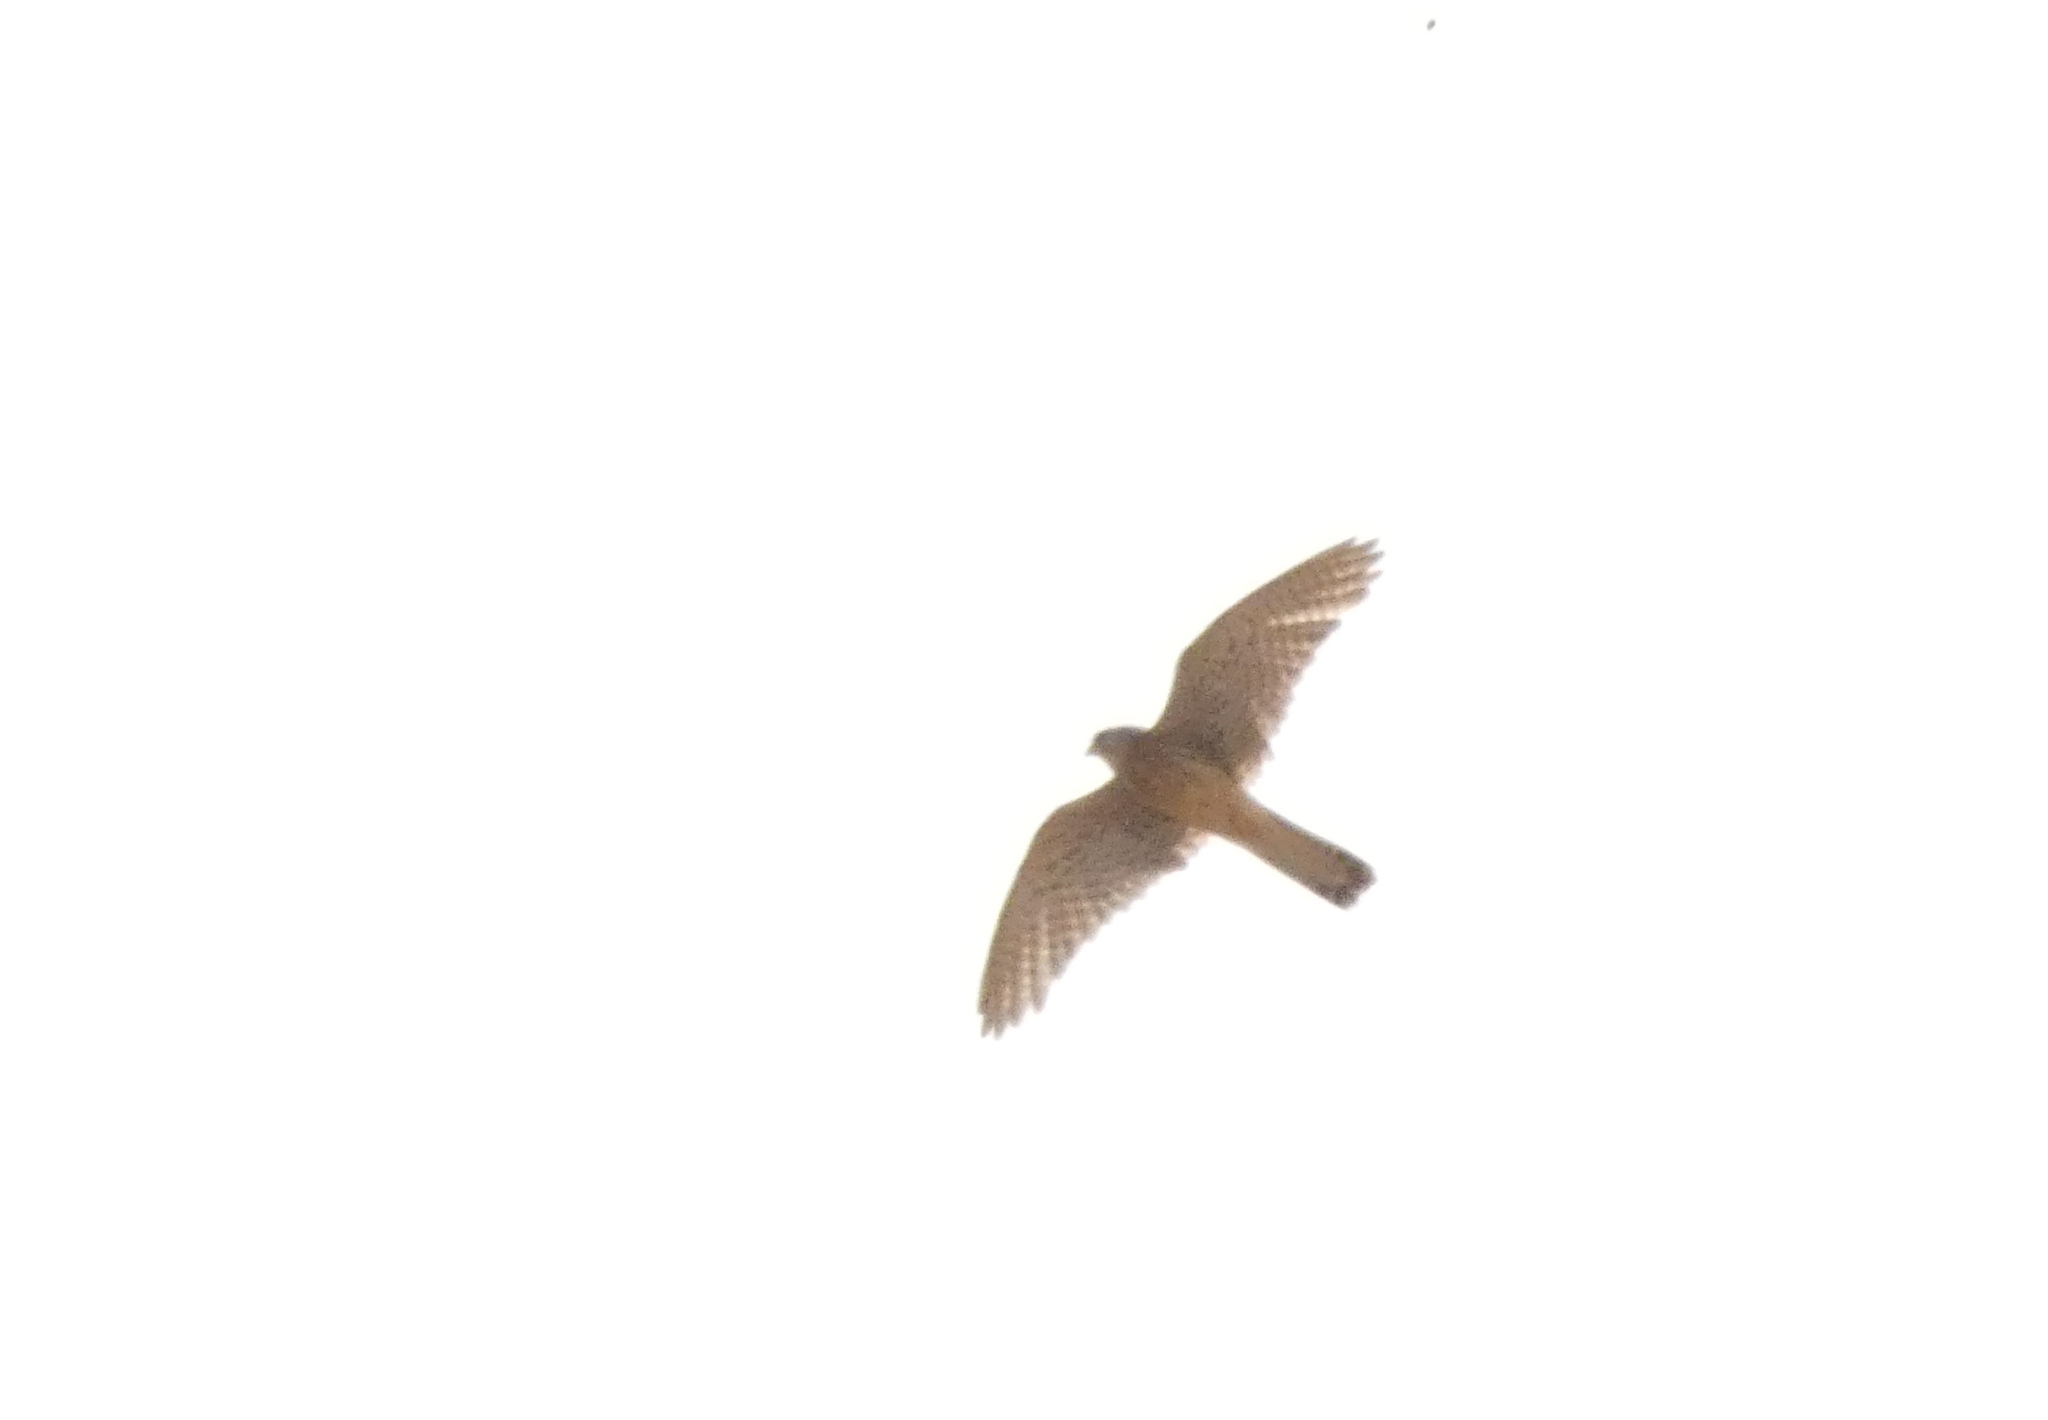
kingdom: Animalia
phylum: Chordata
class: Aves
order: Falconiformes
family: Falconidae
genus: Falco
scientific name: Falco tinnunculus
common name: Common kestrel
